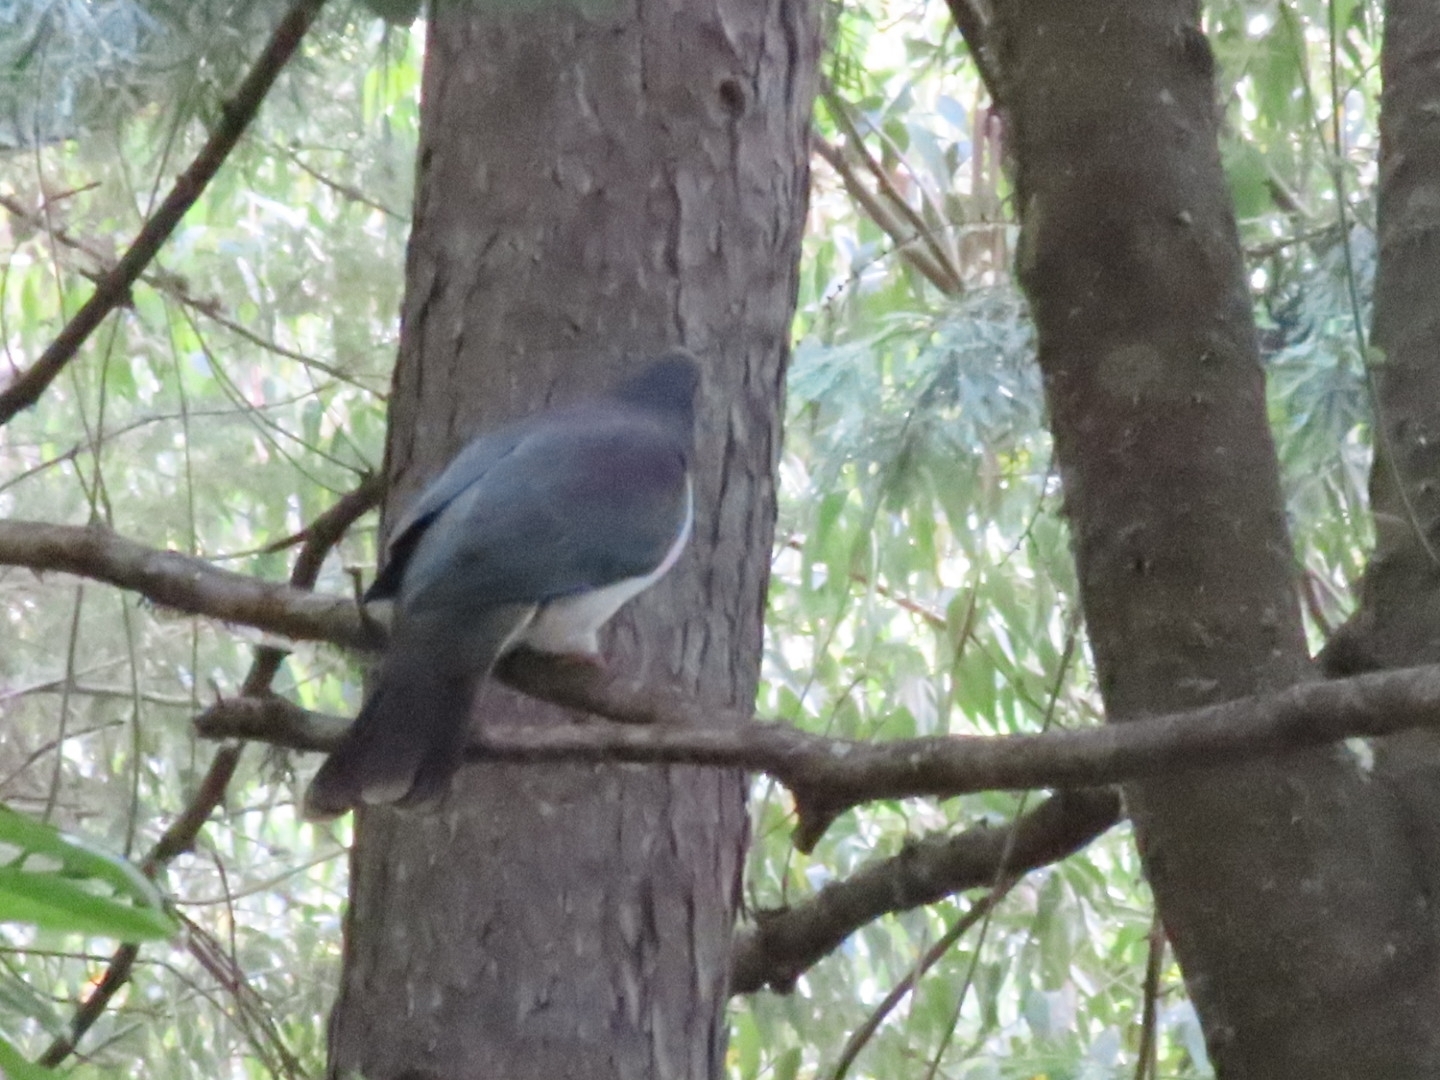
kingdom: Animalia
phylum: Chordata
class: Aves
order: Columbiformes
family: Columbidae
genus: Hemiphaga
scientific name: Hemiphaga novaeseelandiae
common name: New zealand pigeon
